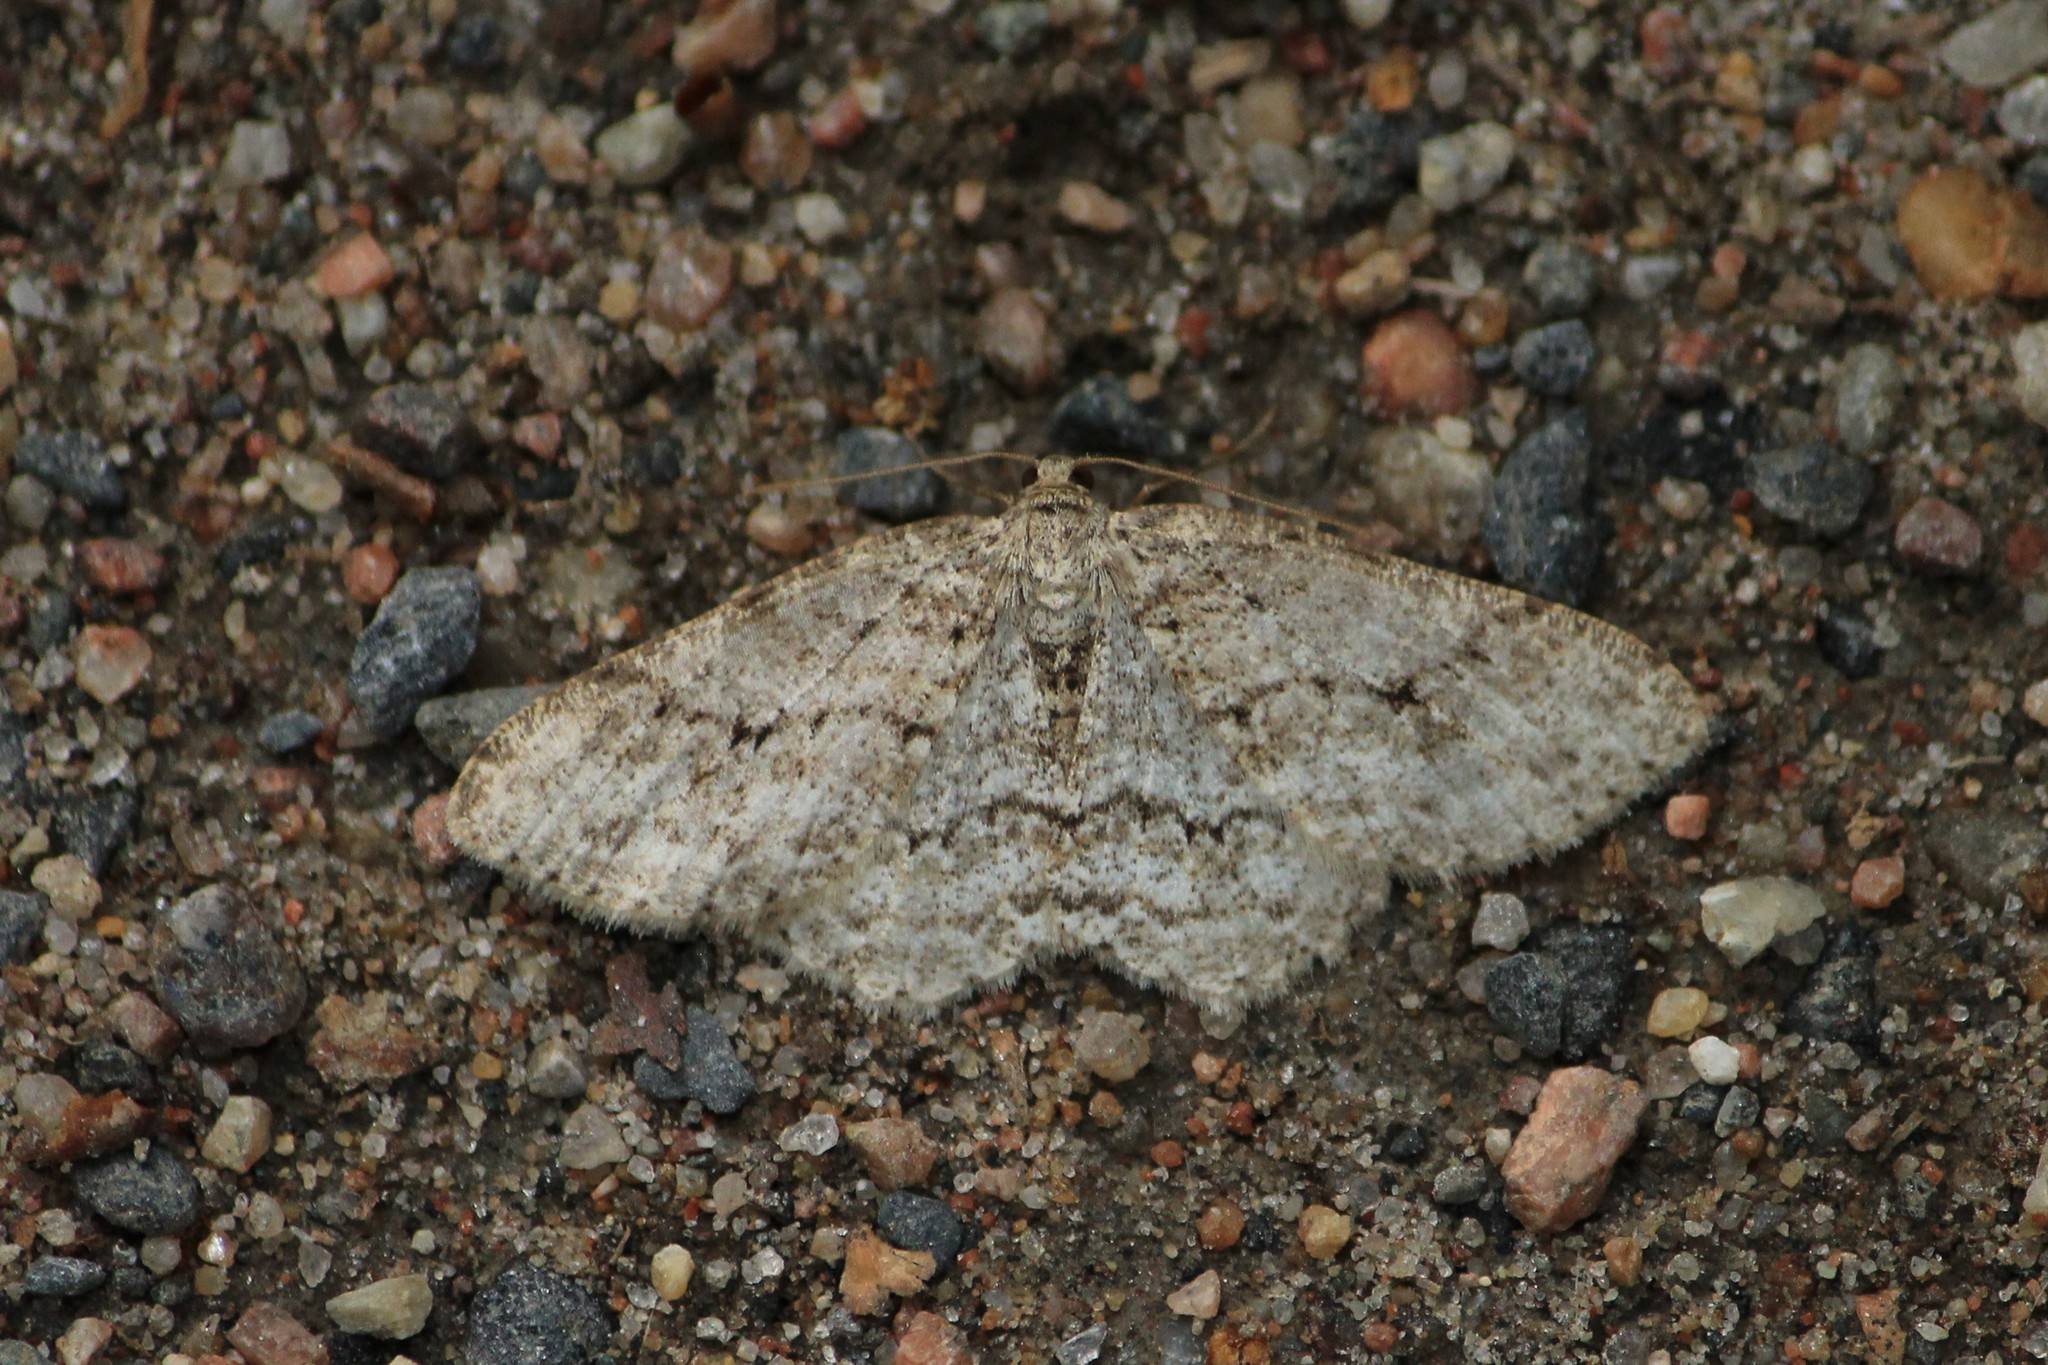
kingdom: Animalia
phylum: Arthropoda
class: Insecta
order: Lepidoptera
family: Geometridae
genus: Ectropis
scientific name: Ectropis crepuscularia
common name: Engrailed
